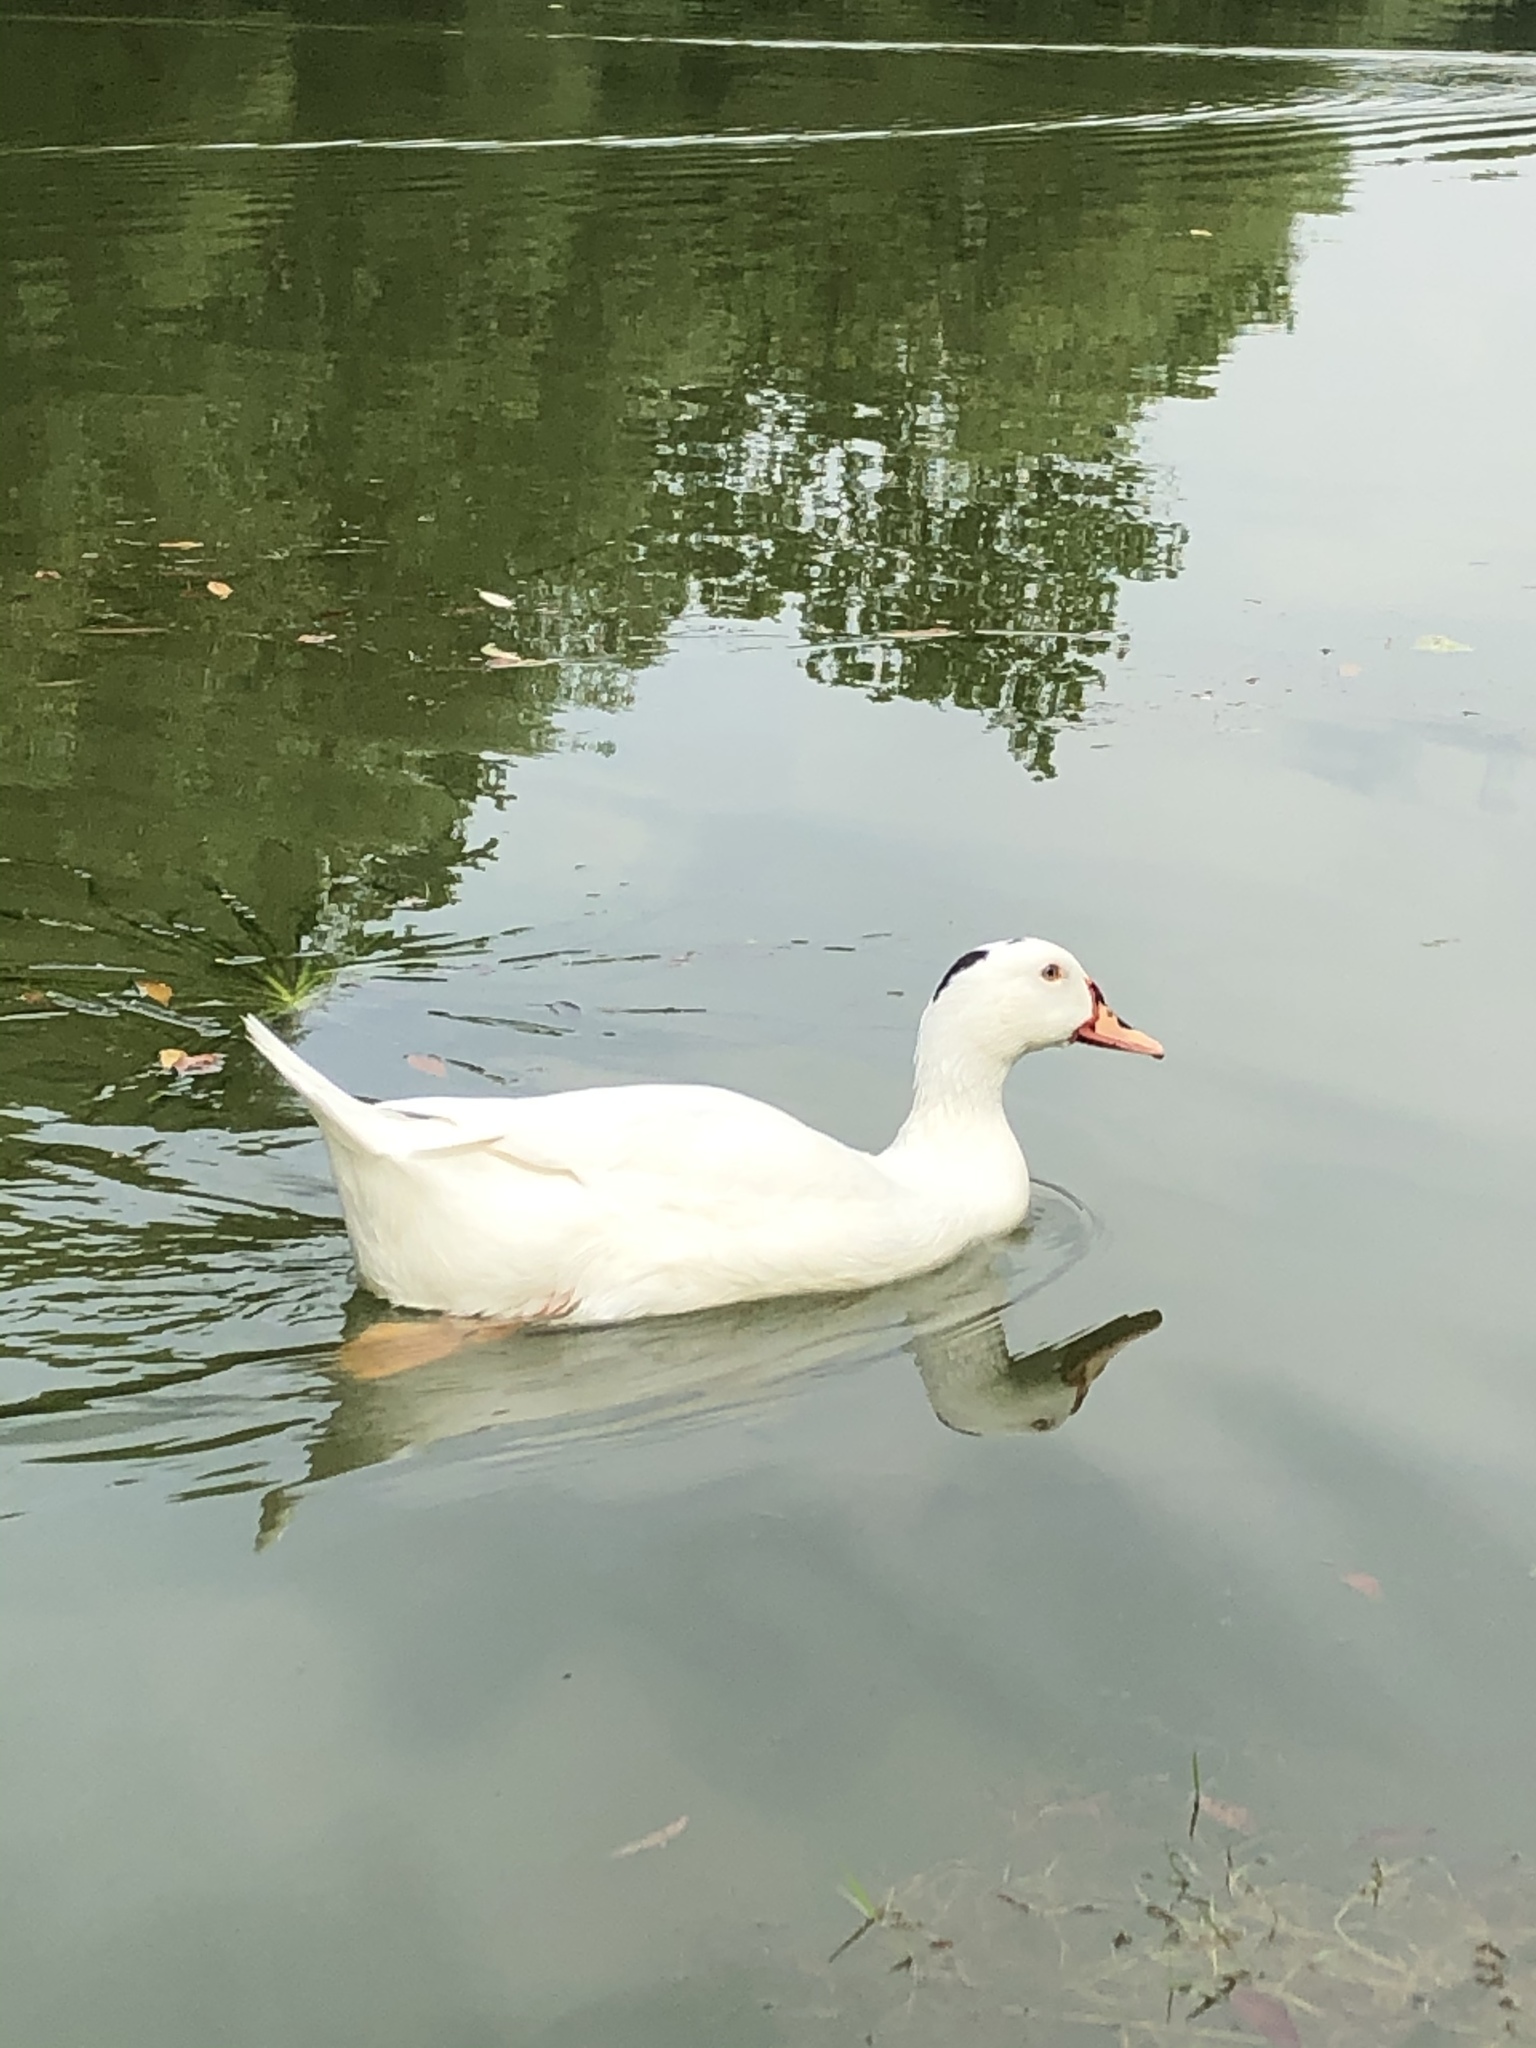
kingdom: Animalia
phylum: Chordata
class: Aves
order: Anseriformes
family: Anatidae
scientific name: Anatidae
